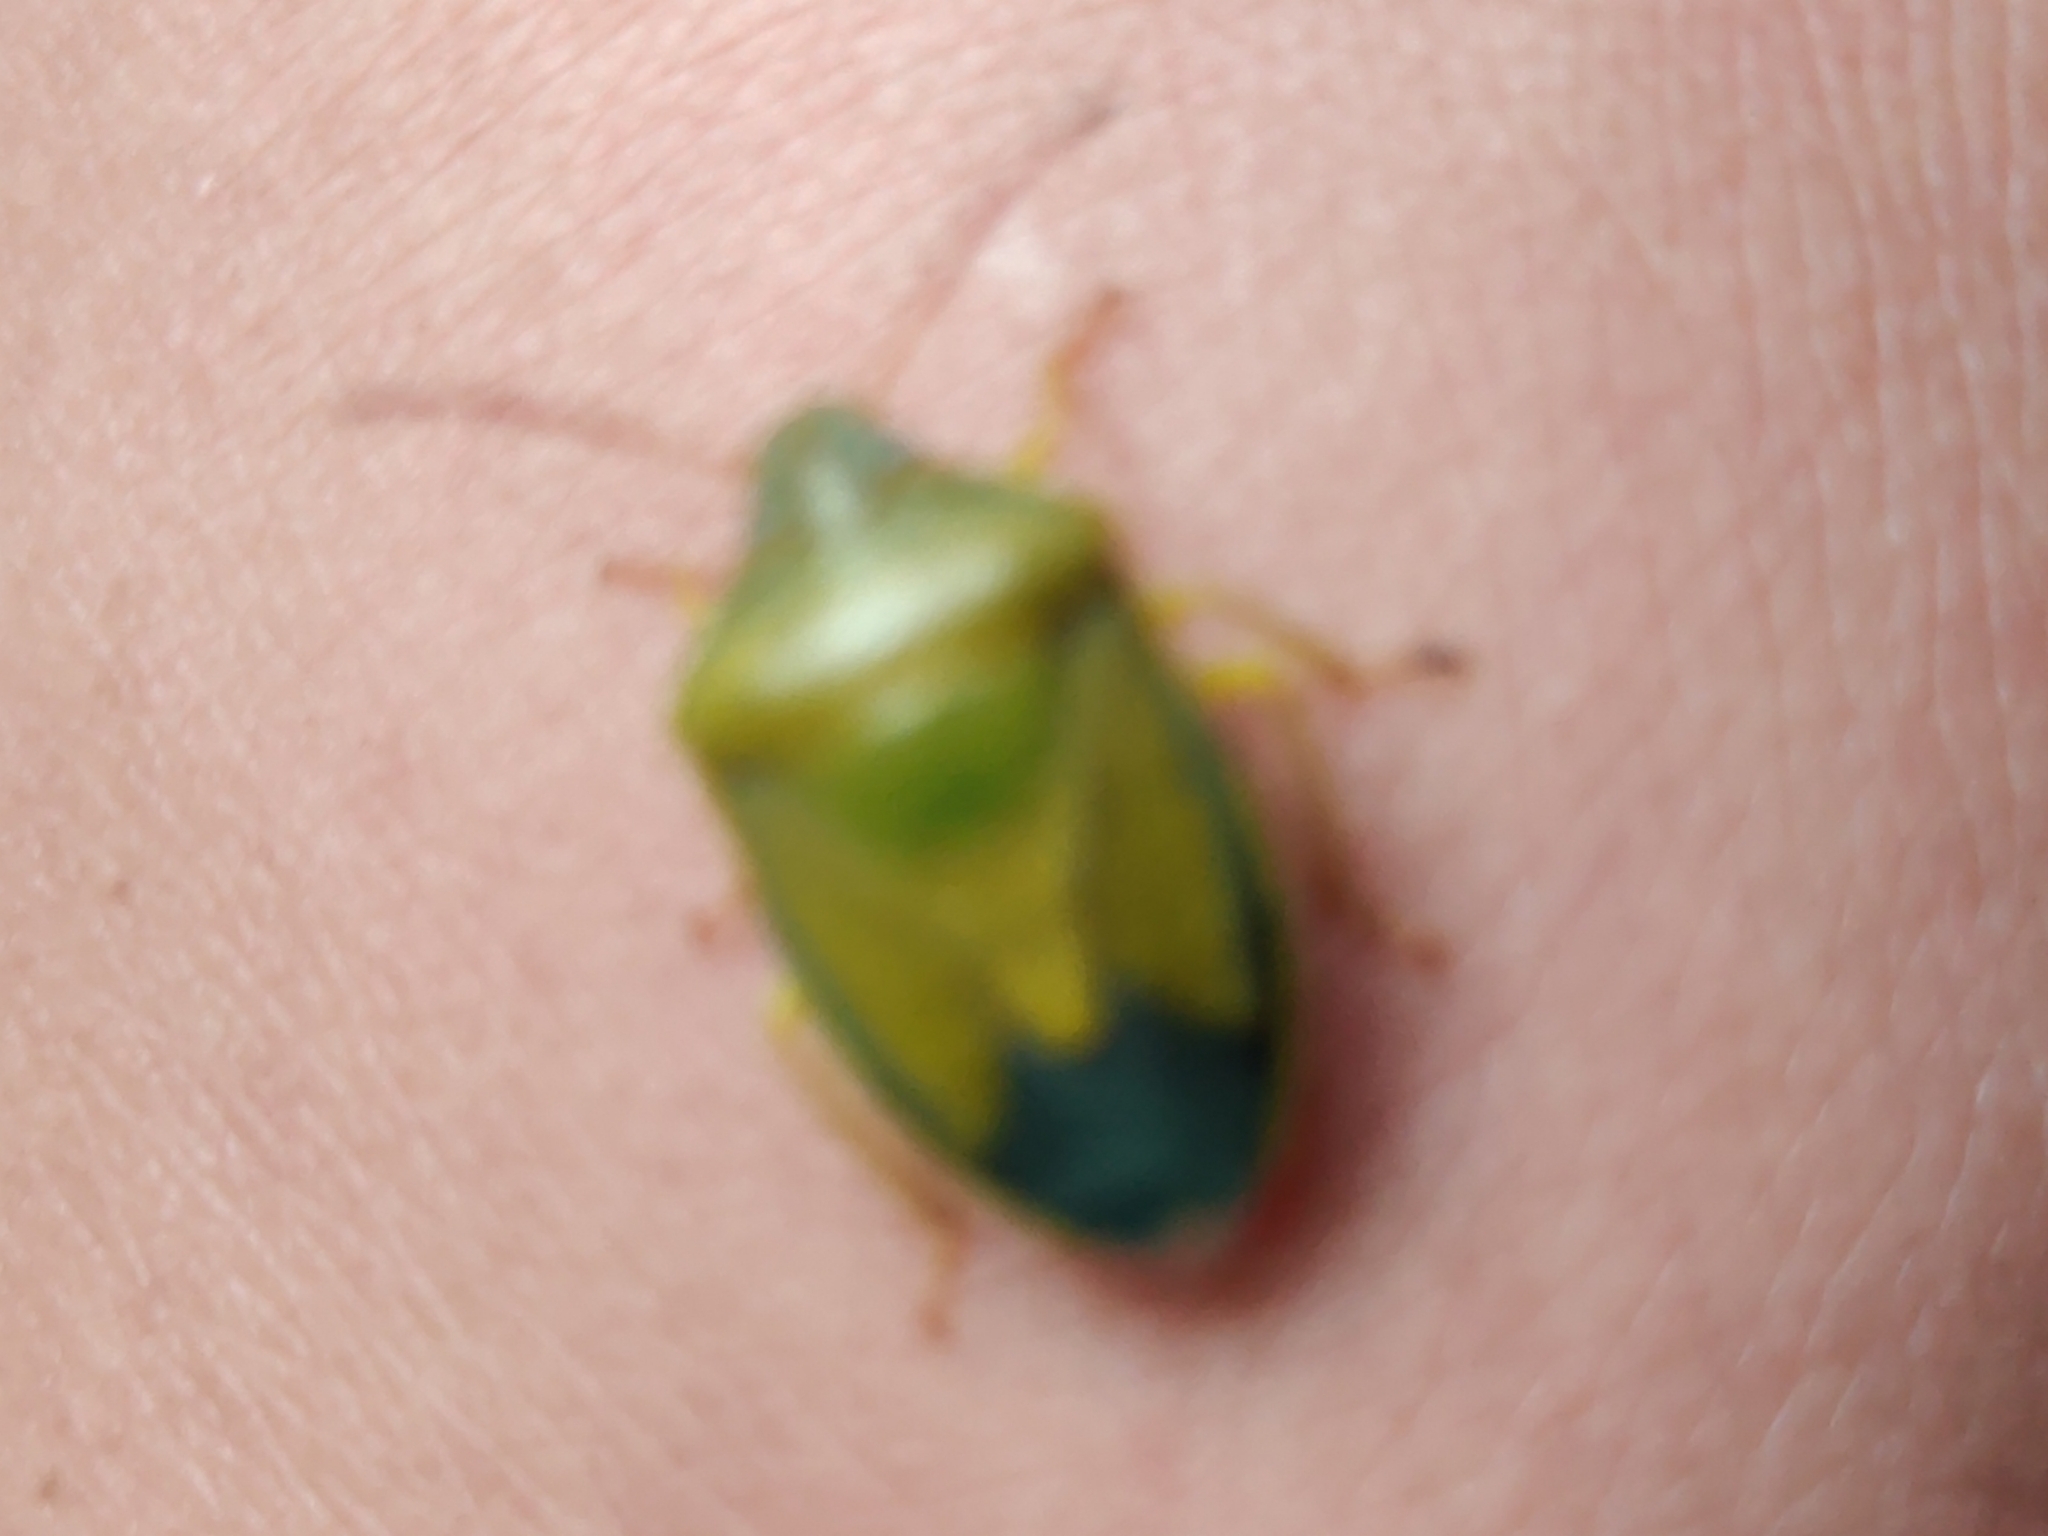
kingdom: Animalia
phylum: Arthropoda
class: Insecta
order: Hemiptera
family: Pentatomidae
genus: Piezodorus
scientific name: Piezodorus lituratus
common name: Stink bug
